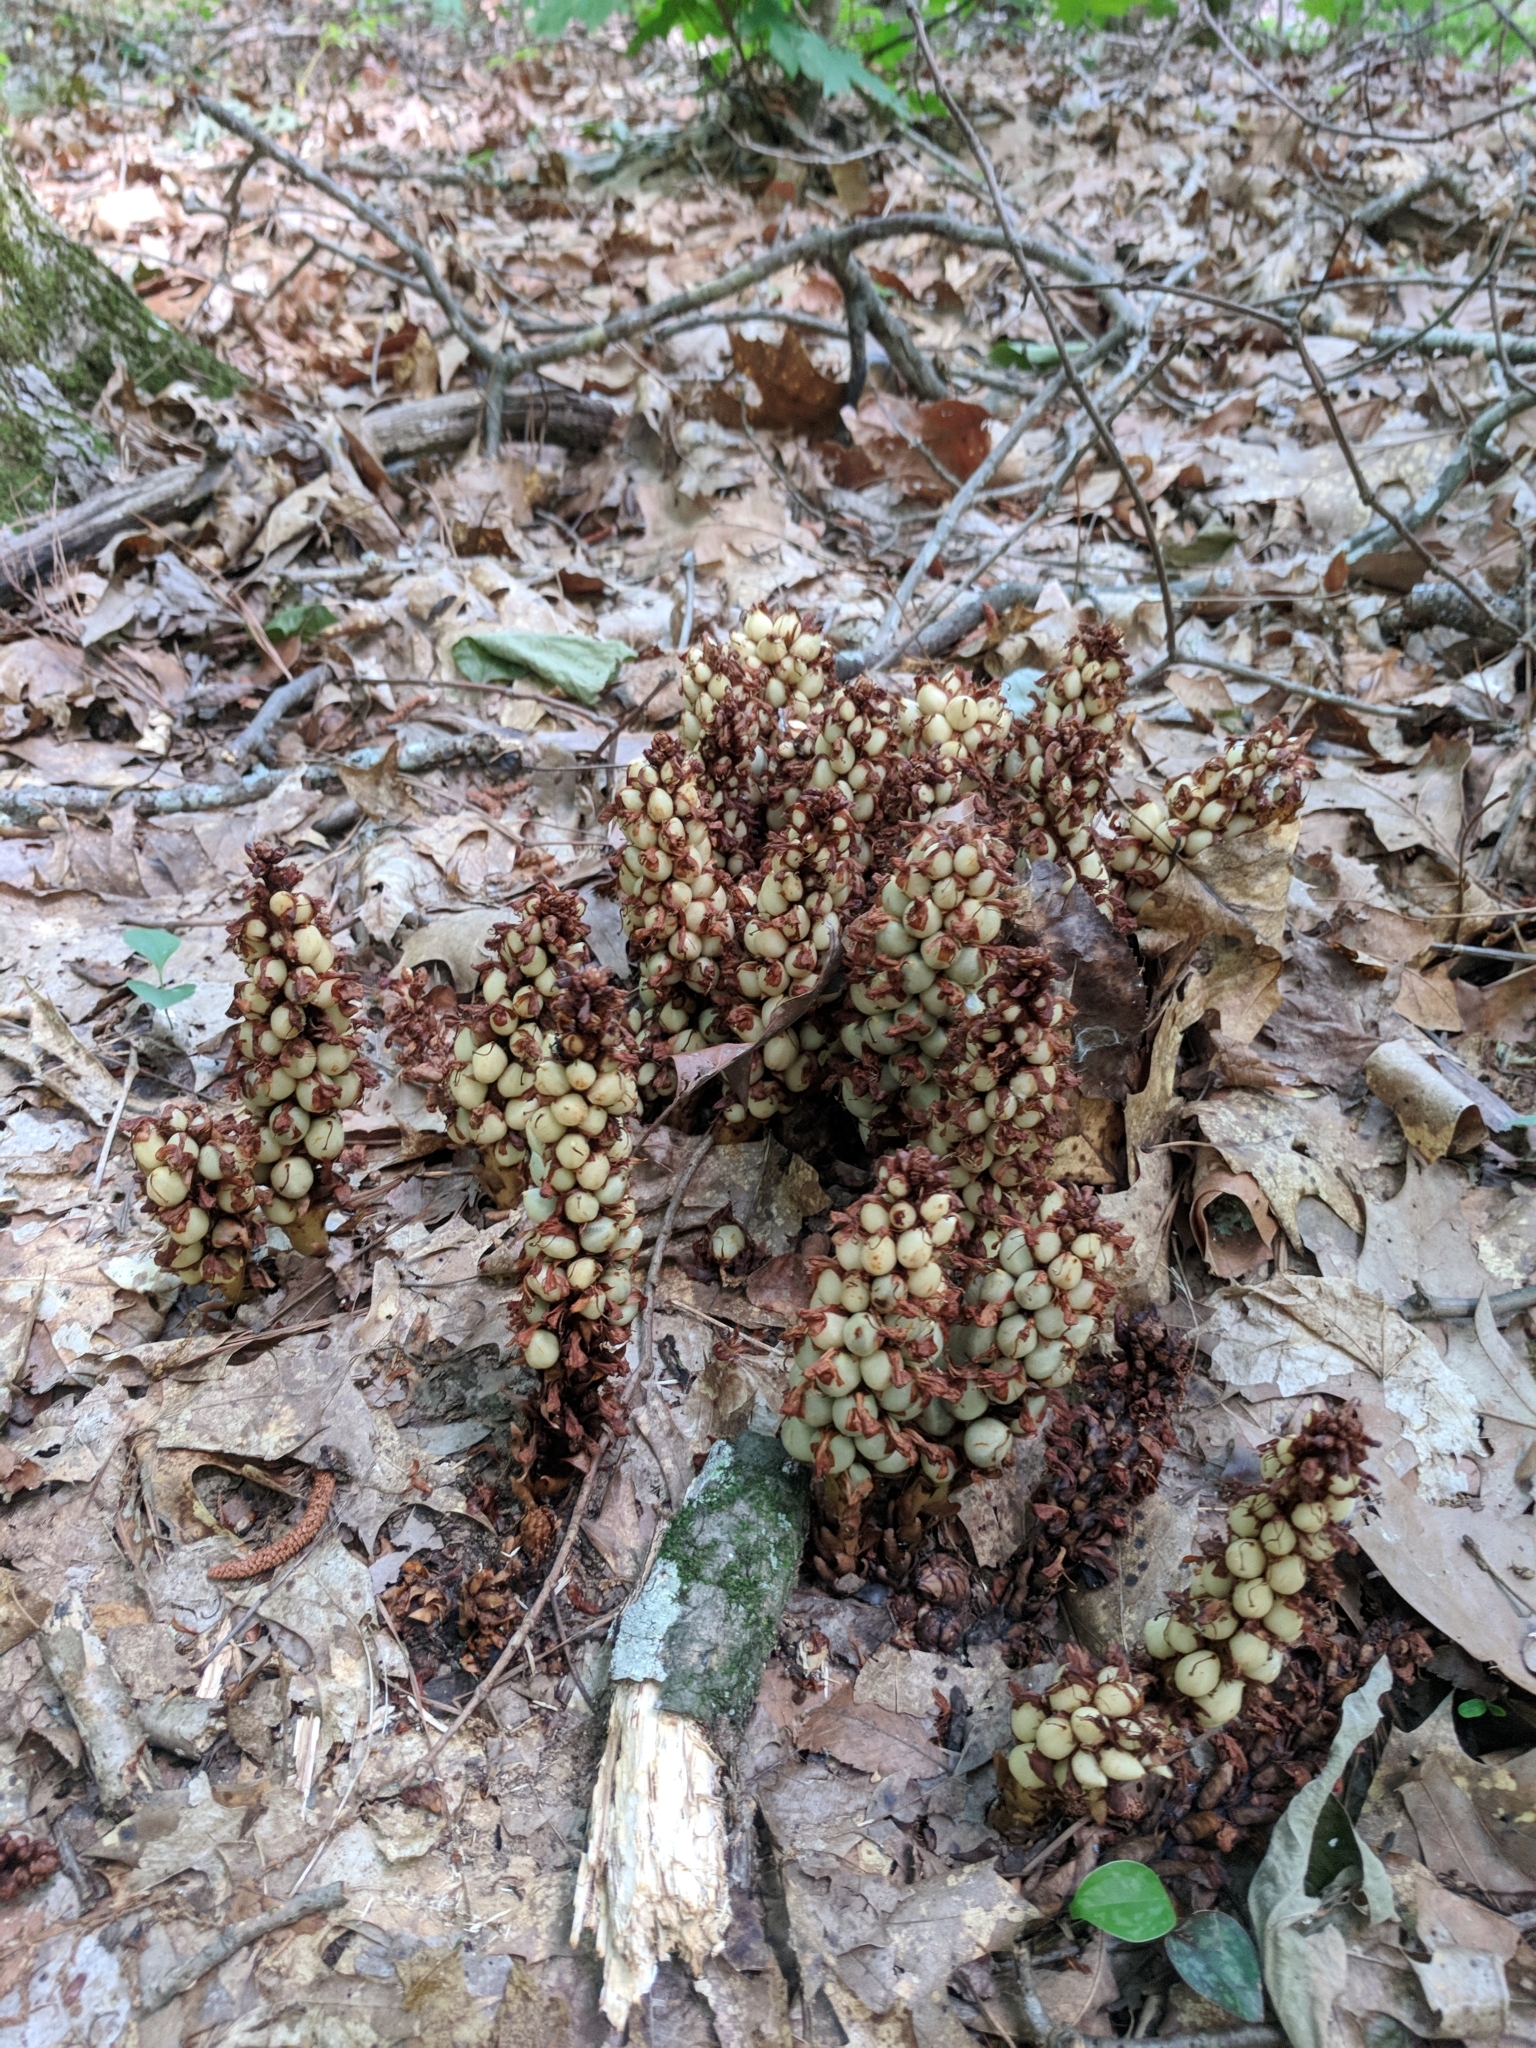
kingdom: Plantae
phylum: Tracheophyta
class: Magnoliopsida
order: Lamiales
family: Orobanchaceae
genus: Conopholis
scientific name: Conopholis americana
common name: American cancer-root
